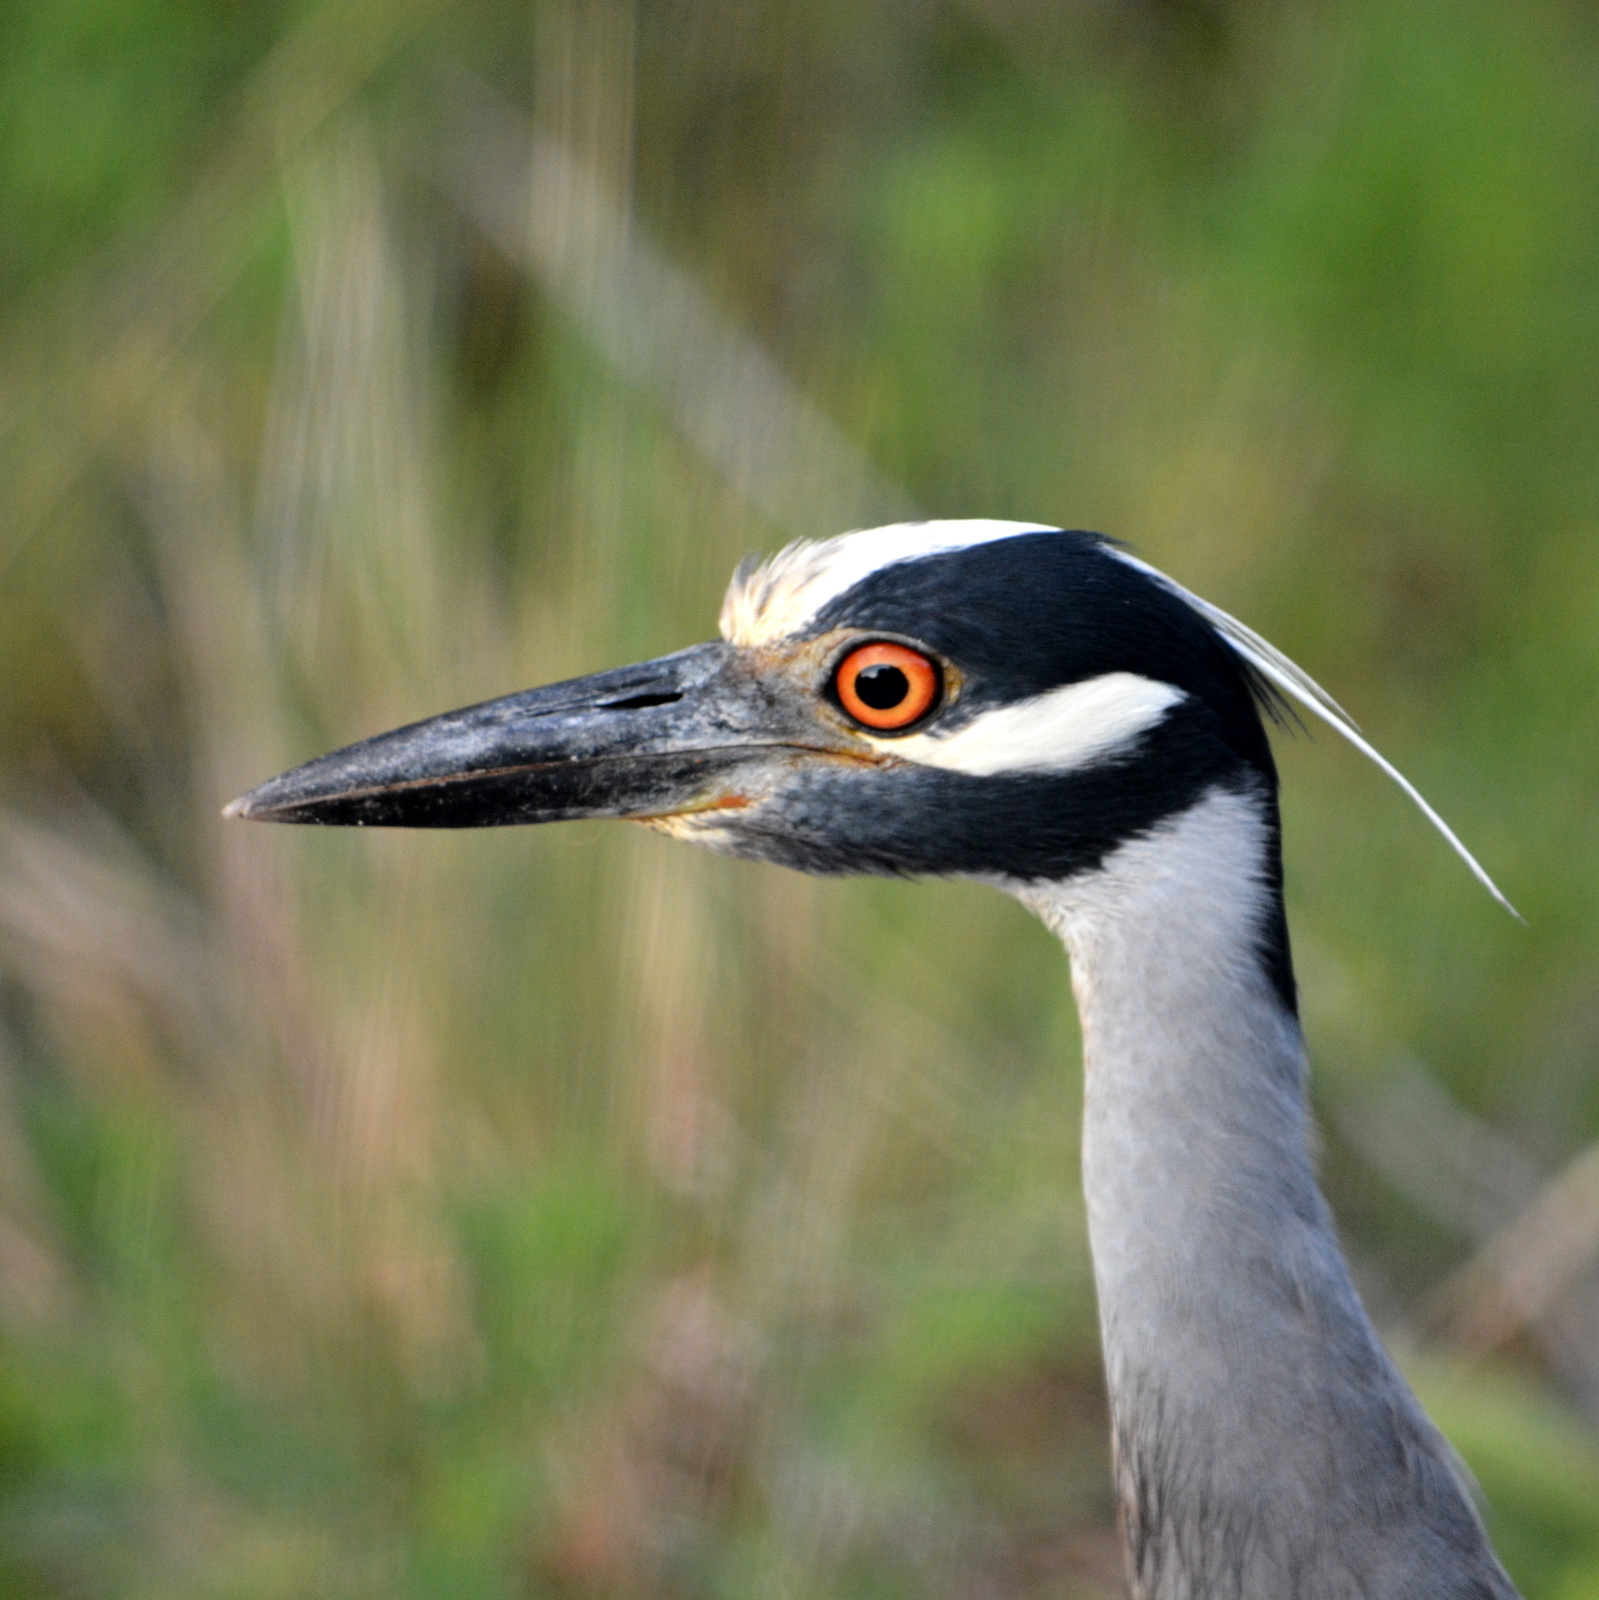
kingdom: Animalia
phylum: Chordata
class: Aves
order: Pelecaniformes
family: Ardeidae
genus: Nyctanassa
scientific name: Nyctanassa violacea
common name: Yellow-crowned night heron
